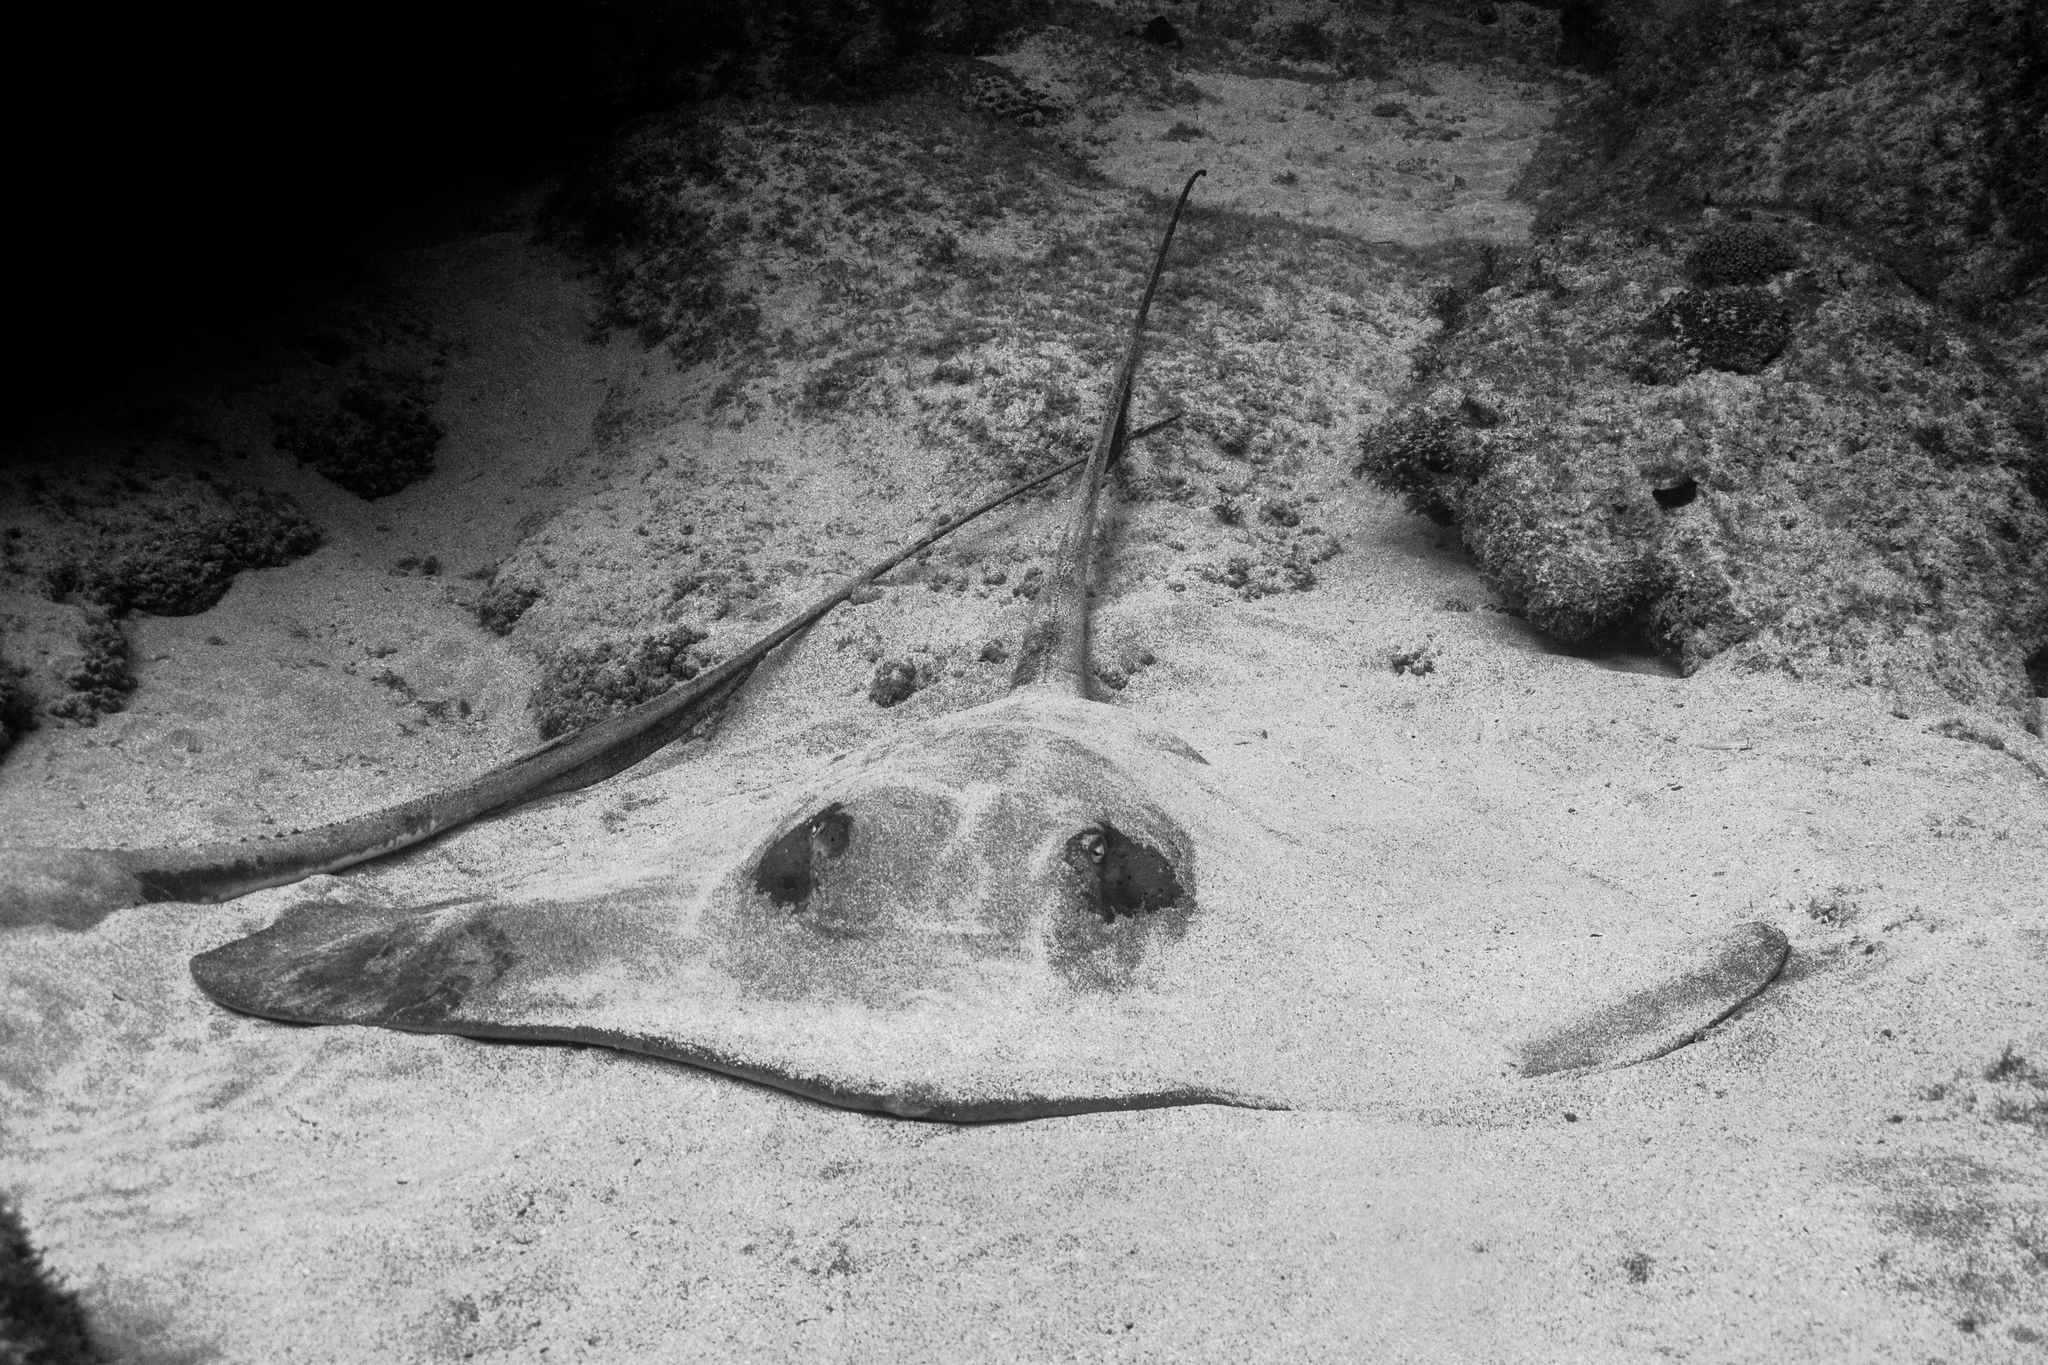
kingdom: Animalia
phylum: Chordata
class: Elasmobranchii
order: Myliobatiformes
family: Dasyatidae
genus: Hypanus
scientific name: Hypanus berthalutzae
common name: Lutz's stingray
